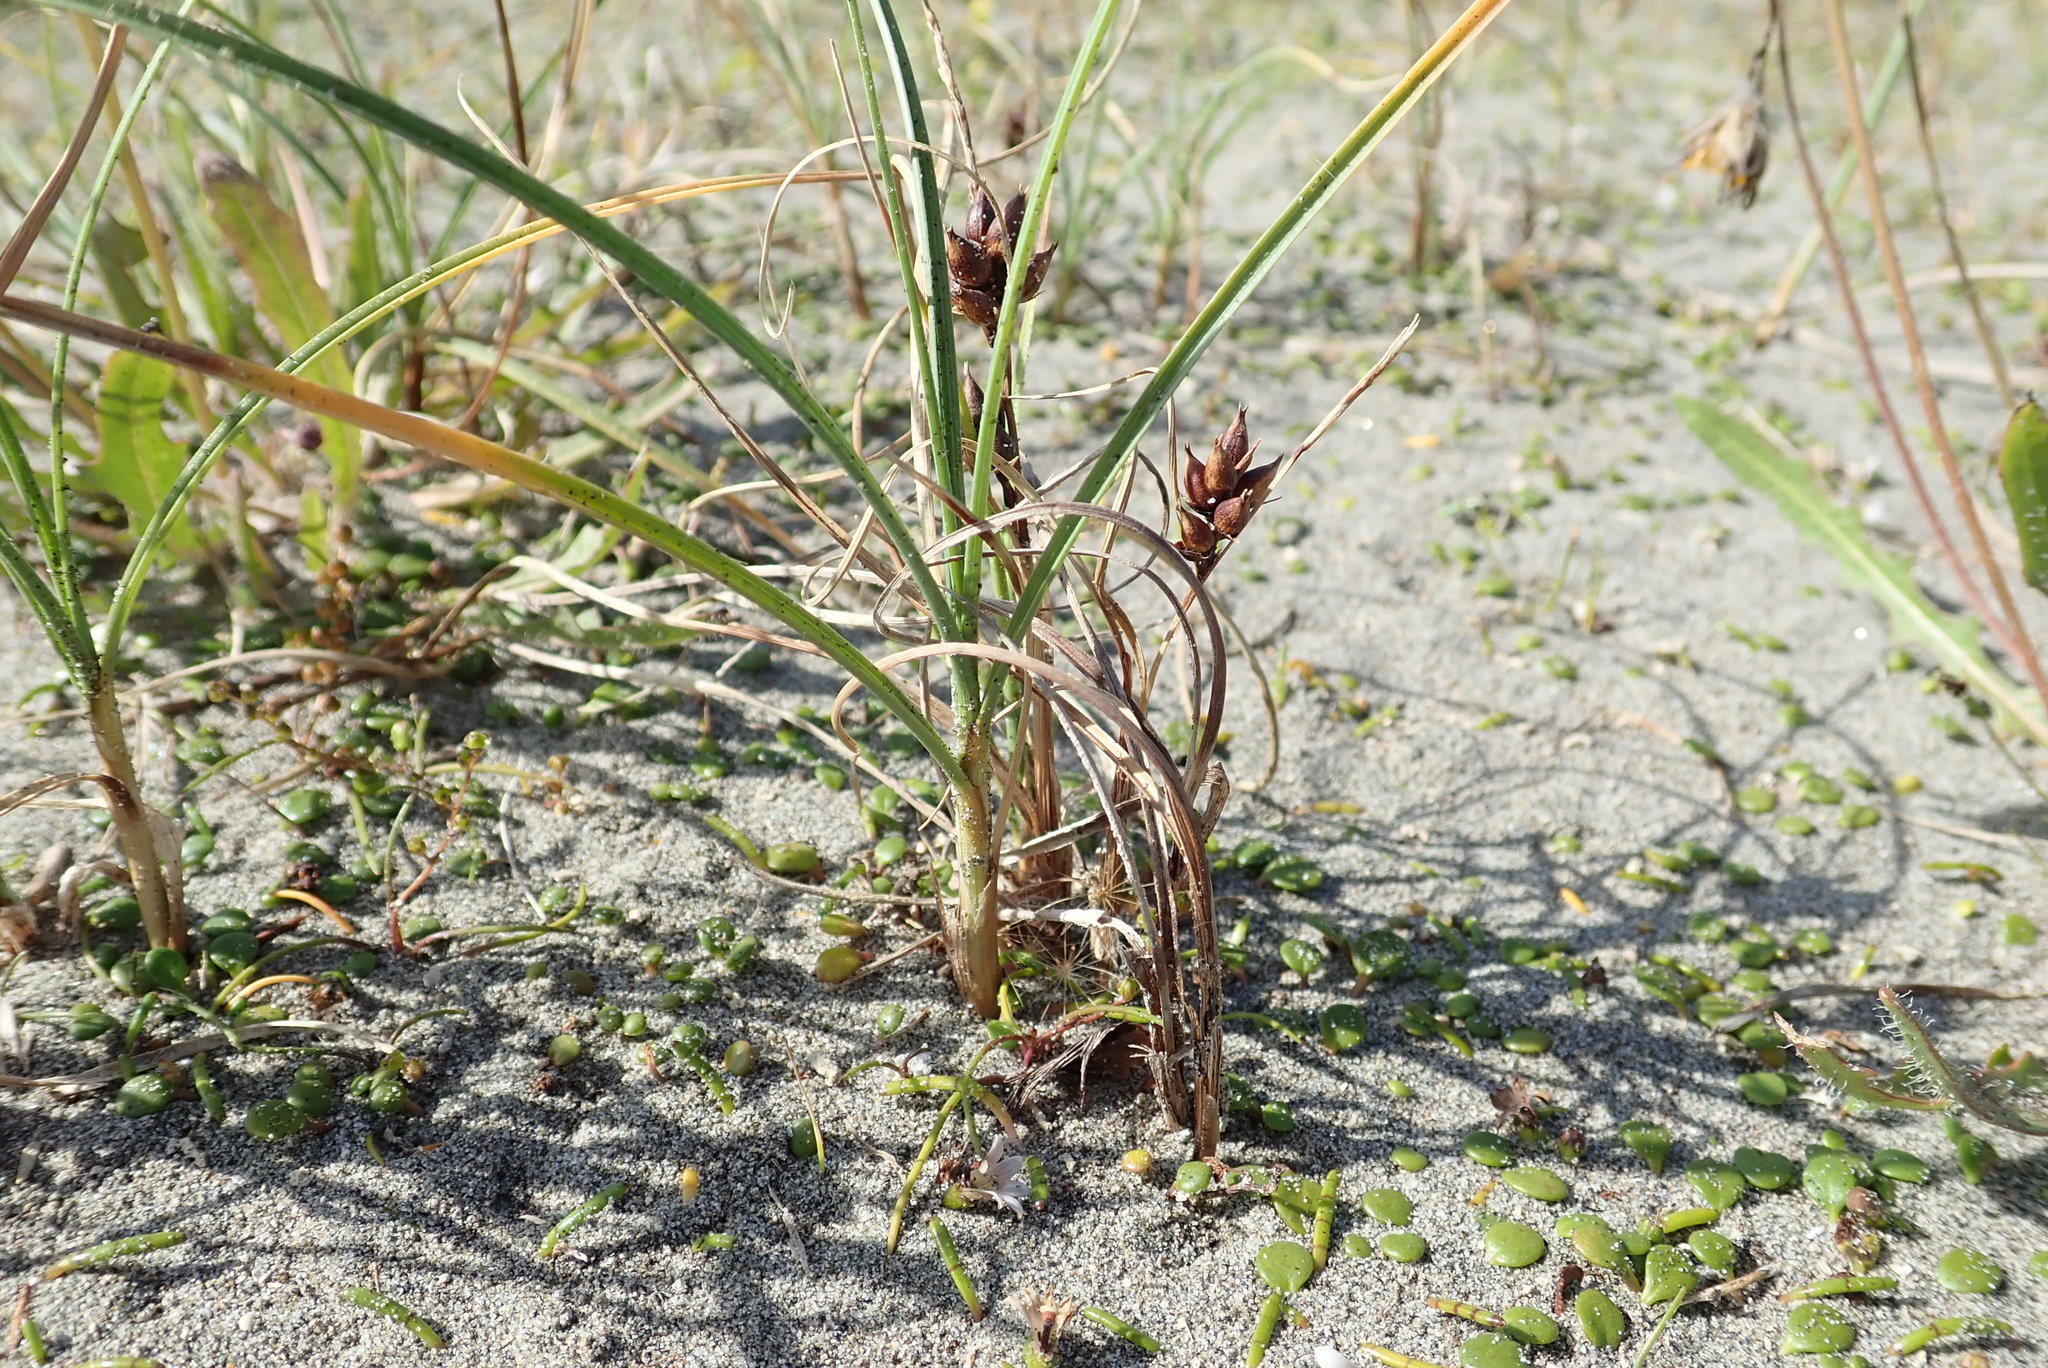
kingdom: Plantae
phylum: Tracheophyta
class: Liliopsida
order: Poales
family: Cyperaceae
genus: Carex
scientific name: Carex pumila
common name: Dwarf sedge
